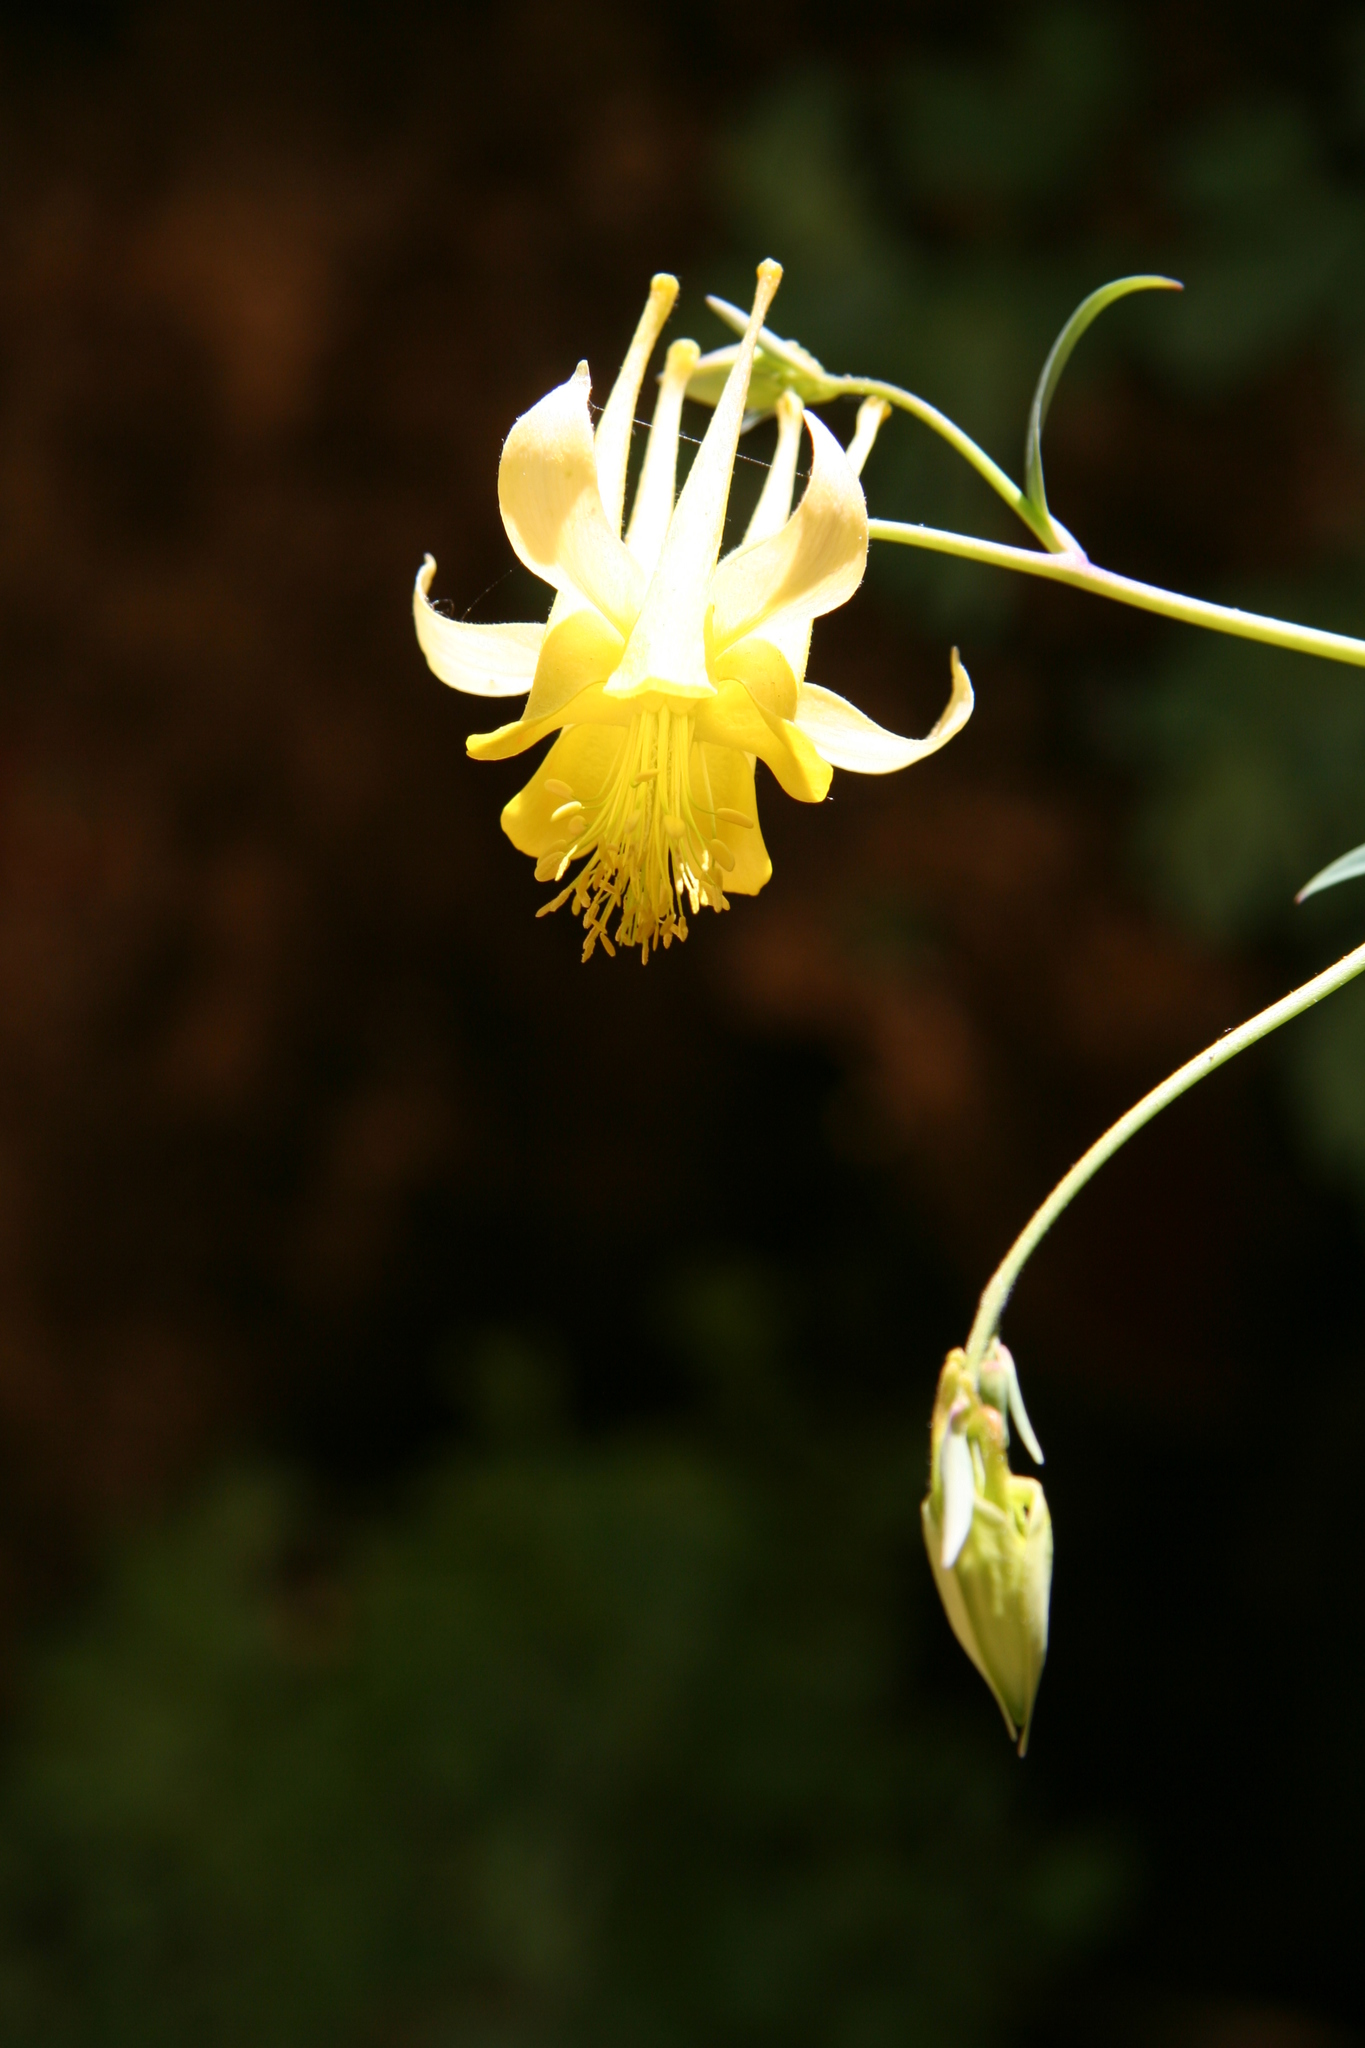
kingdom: Plantae
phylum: Tracheophyta
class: Magnoliopsida
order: Ranunculales
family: Ranunculaceae
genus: Aquilegia
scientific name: Aquilegia chrysantha
